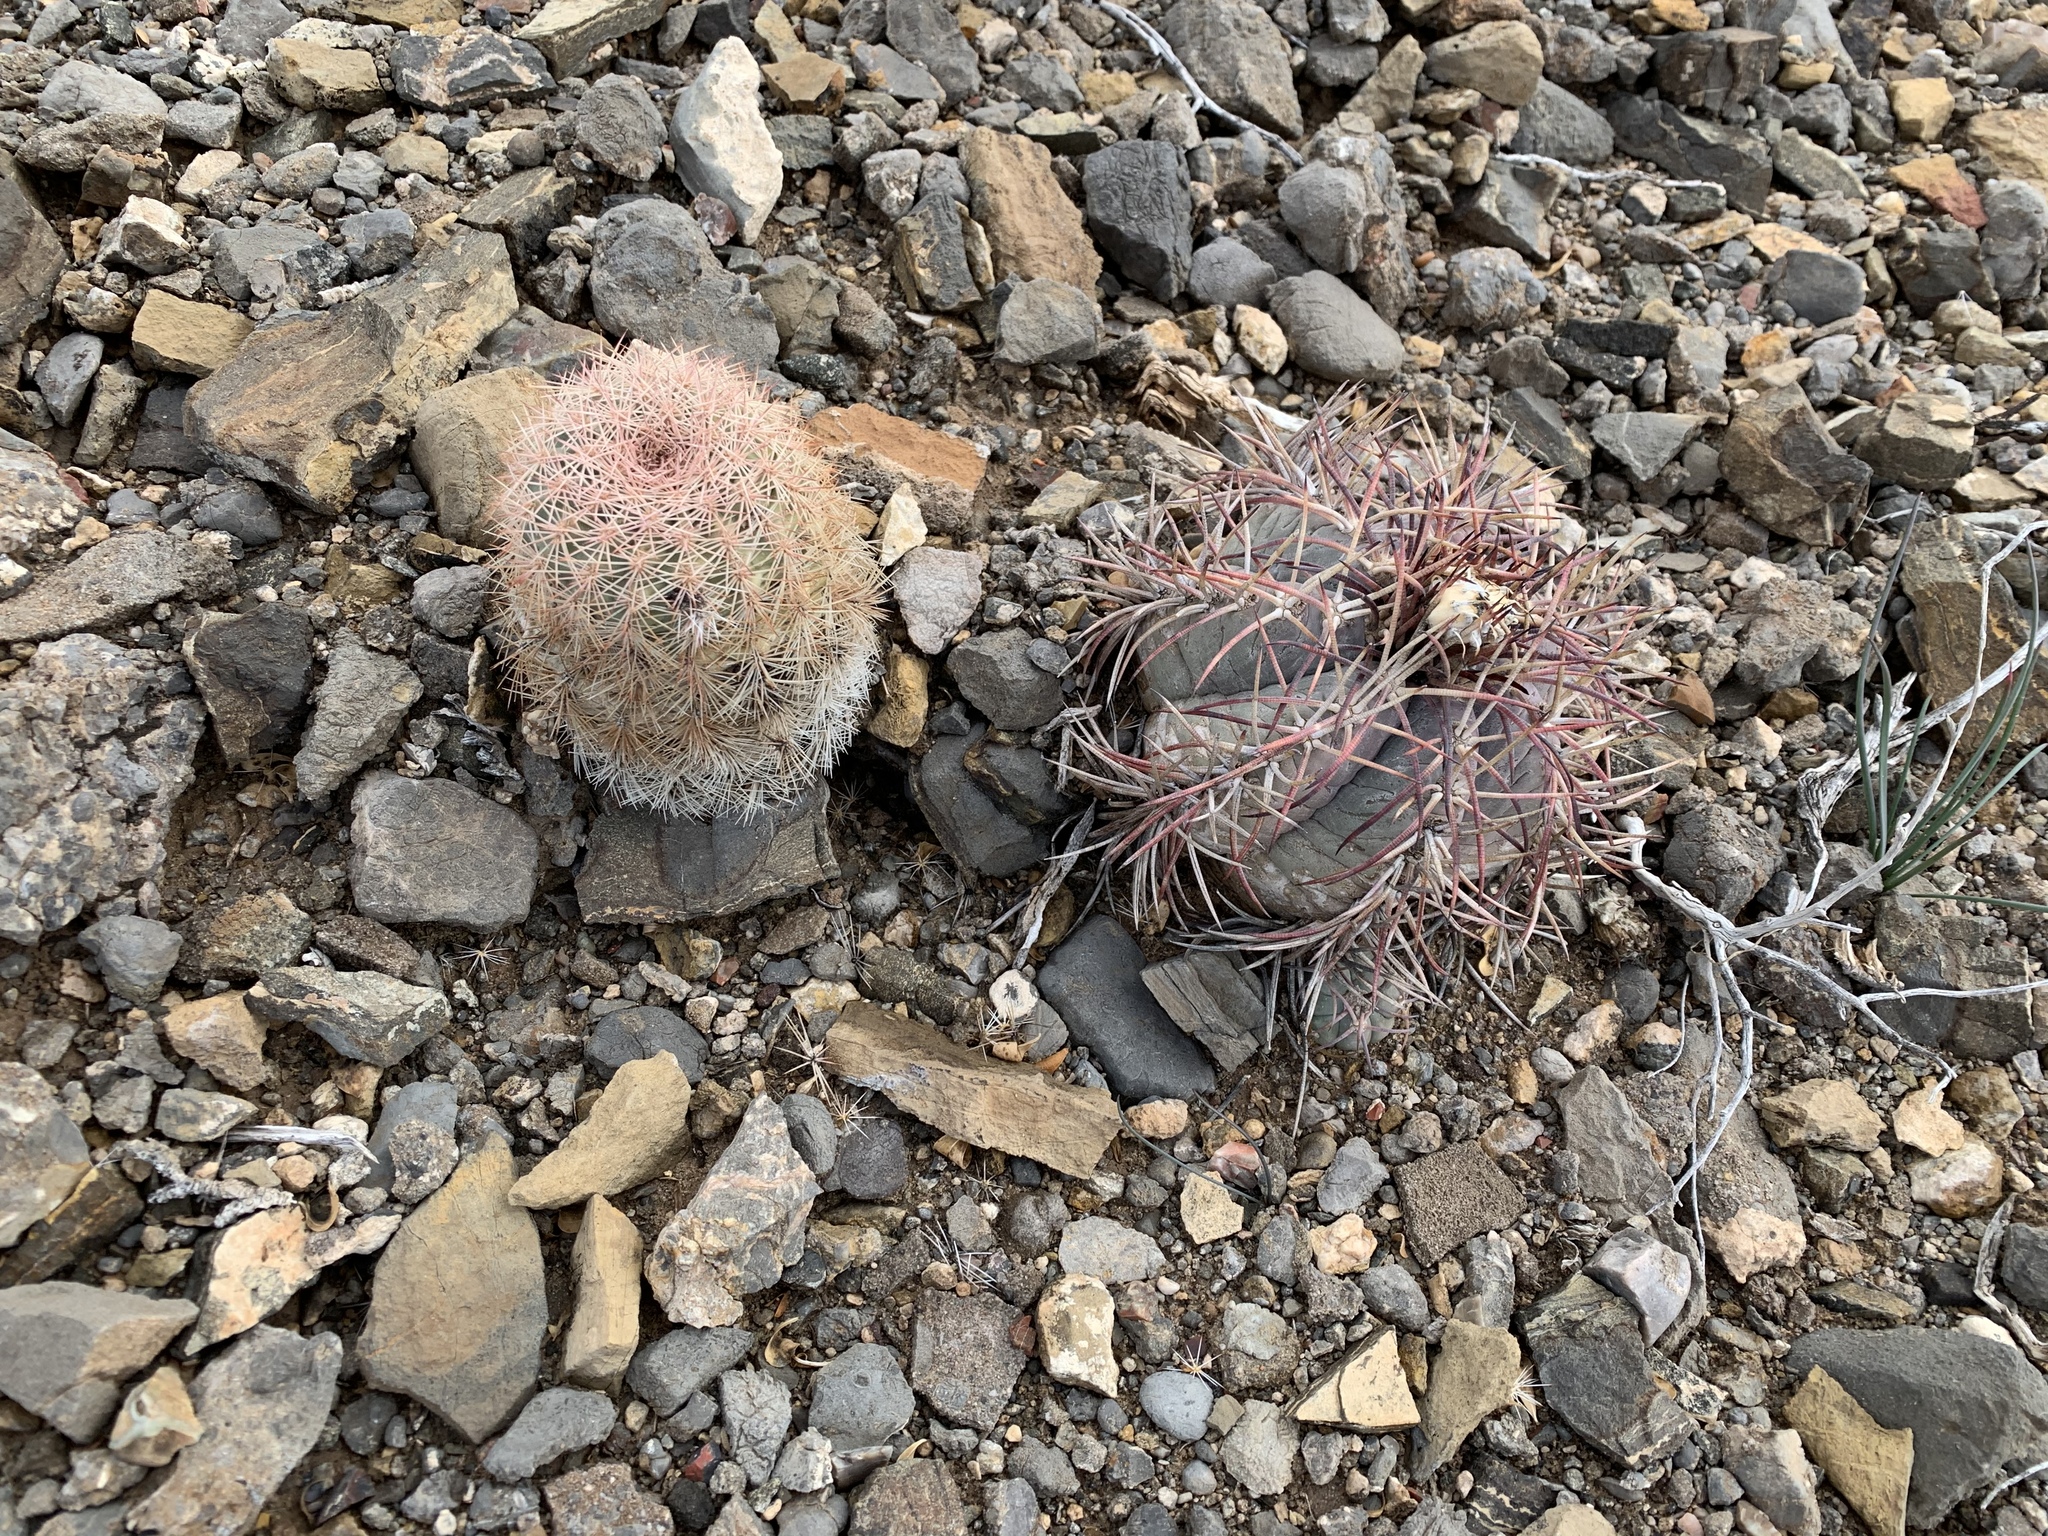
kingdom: Plantae
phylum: Tracheophyta
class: Magnoliopsida
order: Caryophyllales
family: Cactaceae
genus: Echinocactus
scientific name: Echinocactus horizonthalonius
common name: Devilshead
